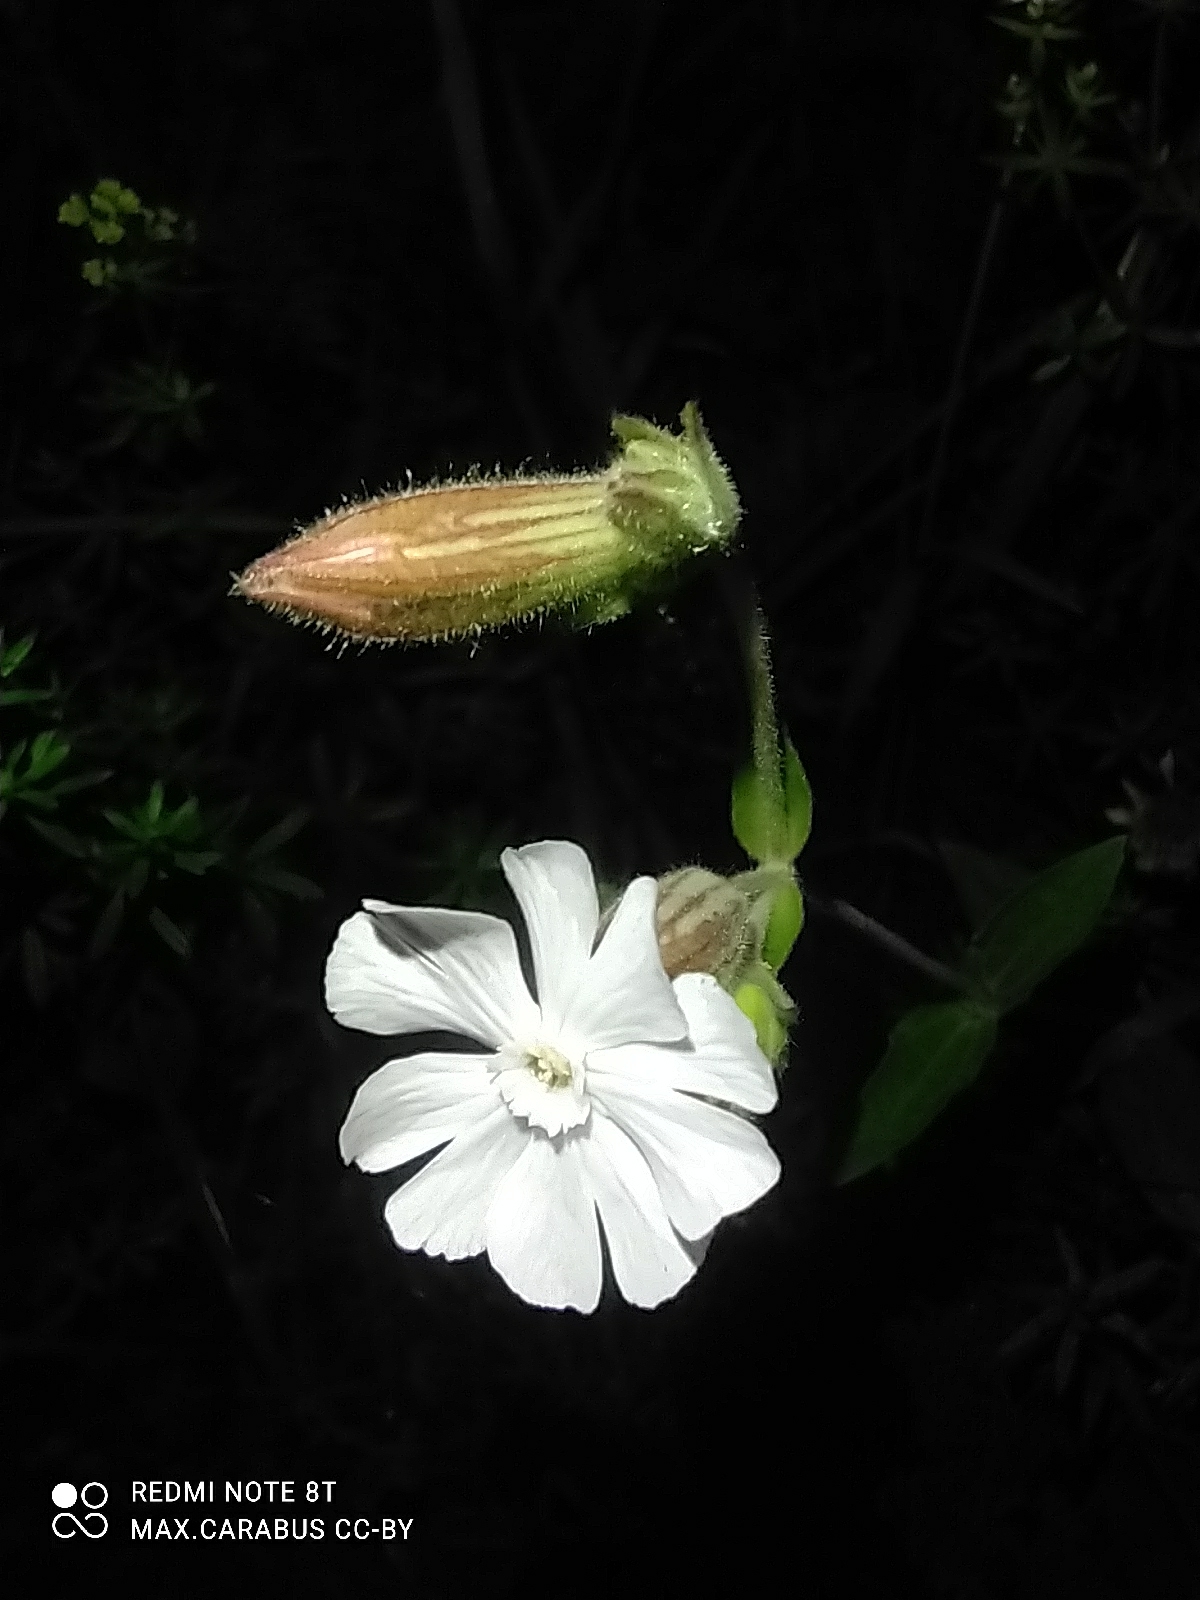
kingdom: Plantae
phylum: Tracheophyta
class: Magnoliopsida
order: Caryophyllales
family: Caryophyllaceae
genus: Silene
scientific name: Silene latifolia
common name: White campion
